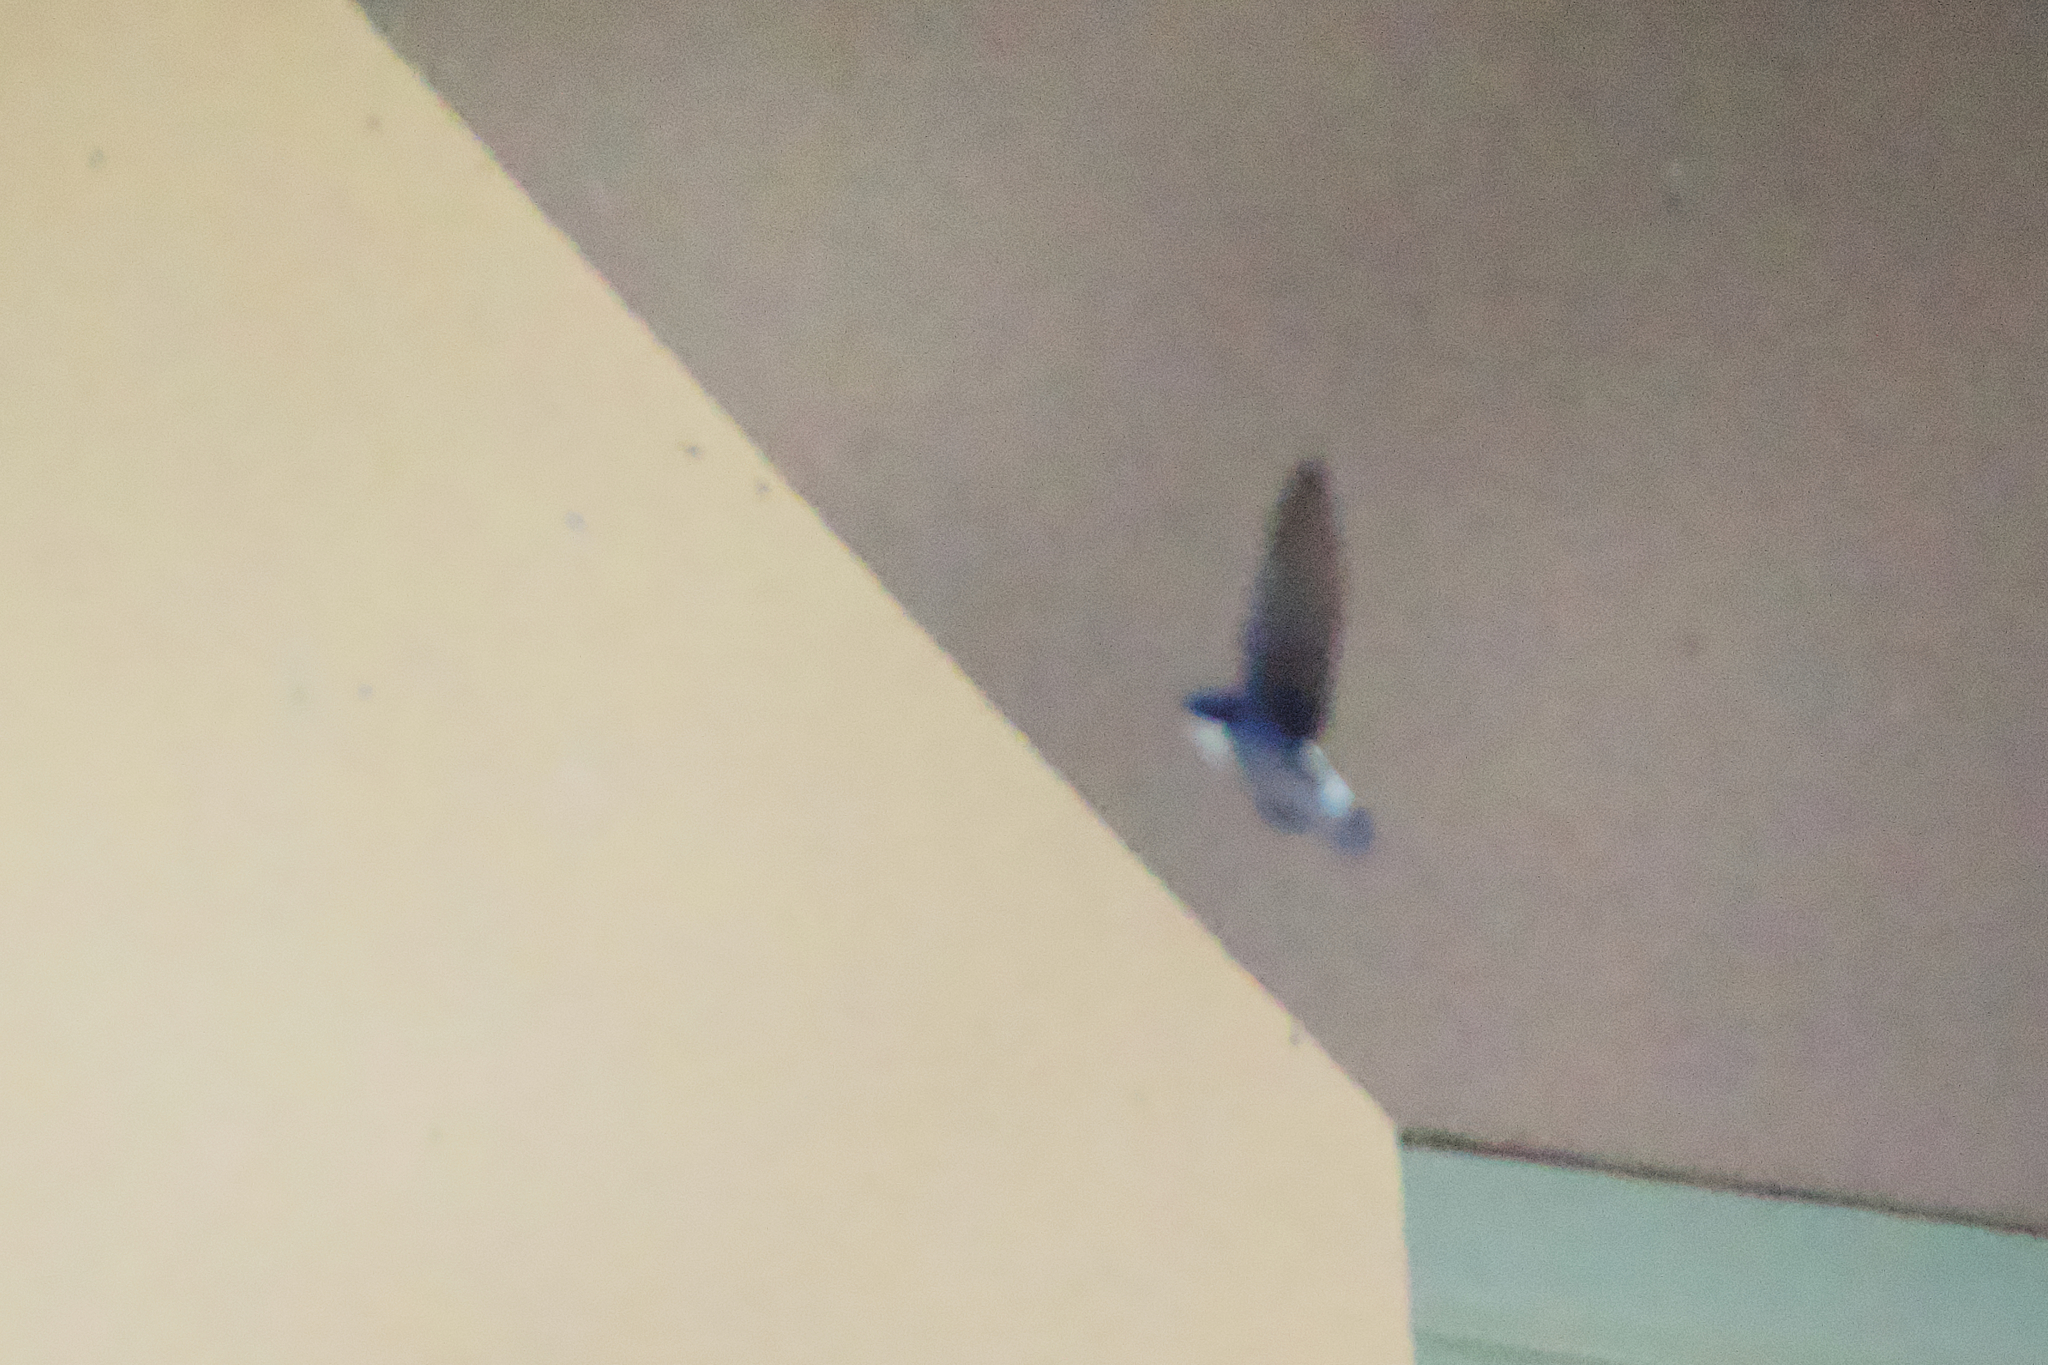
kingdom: Animalia
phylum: Chordata
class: Aves
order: Passeriformes
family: Hirundinidae
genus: Delichon
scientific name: Delichon urbicum
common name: Common house martin
